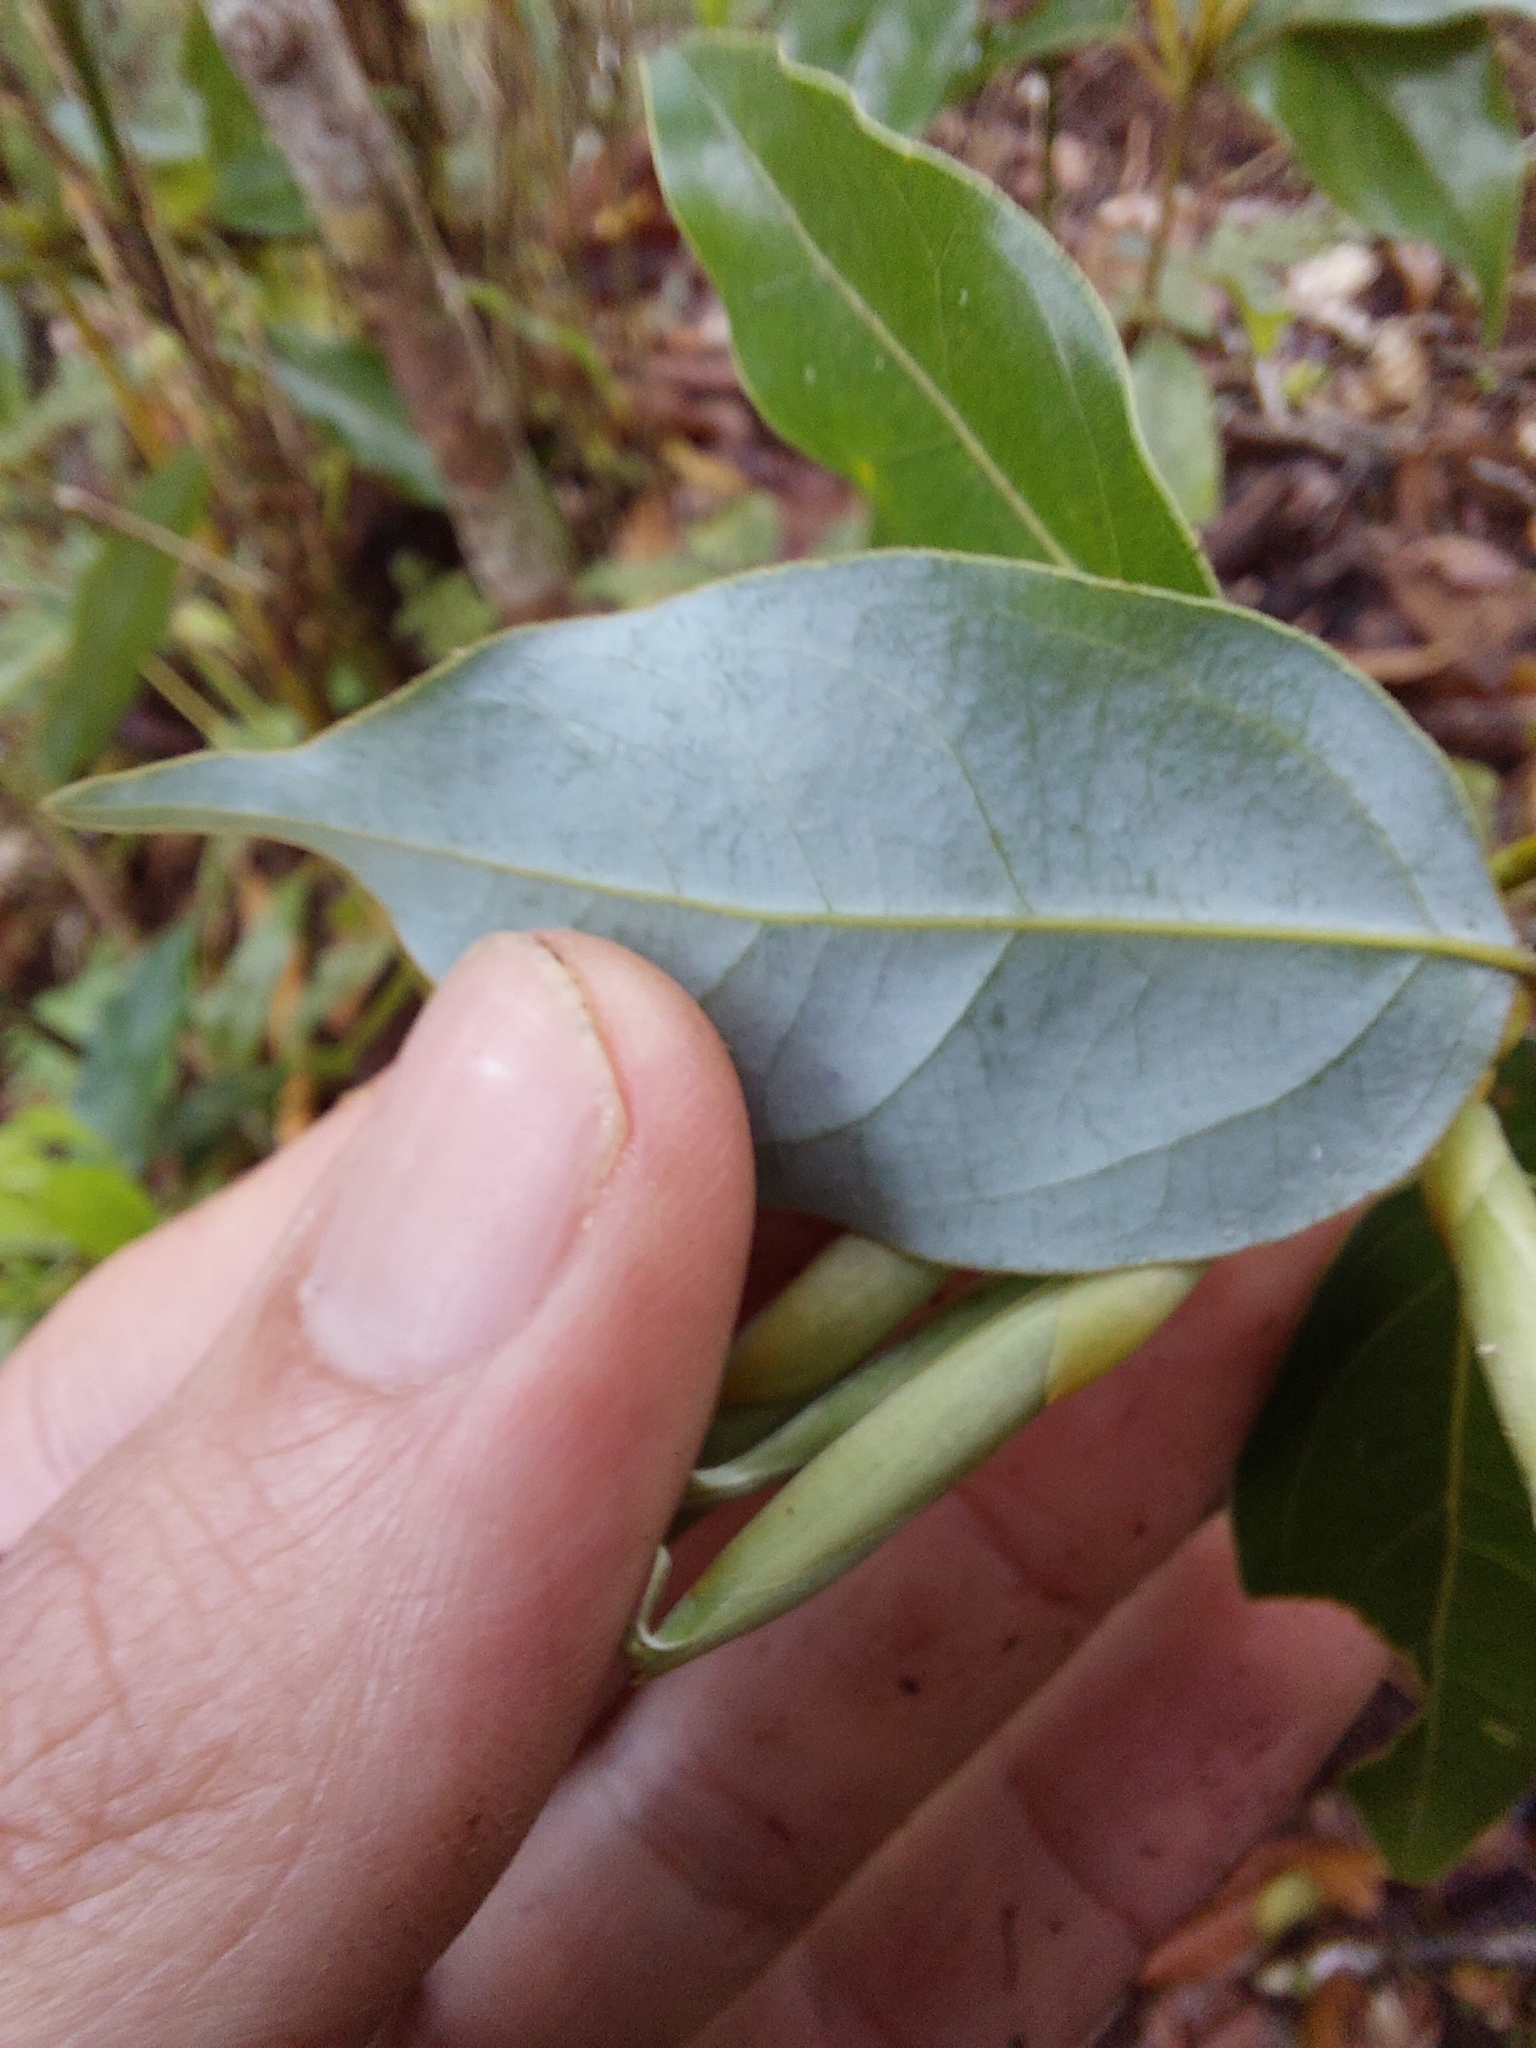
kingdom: Plantae
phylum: Tracheophyta
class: Magnoliopsida
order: Laurales
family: Lauraceae
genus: Neolitsea
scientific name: Neolitsea acuminatissima
